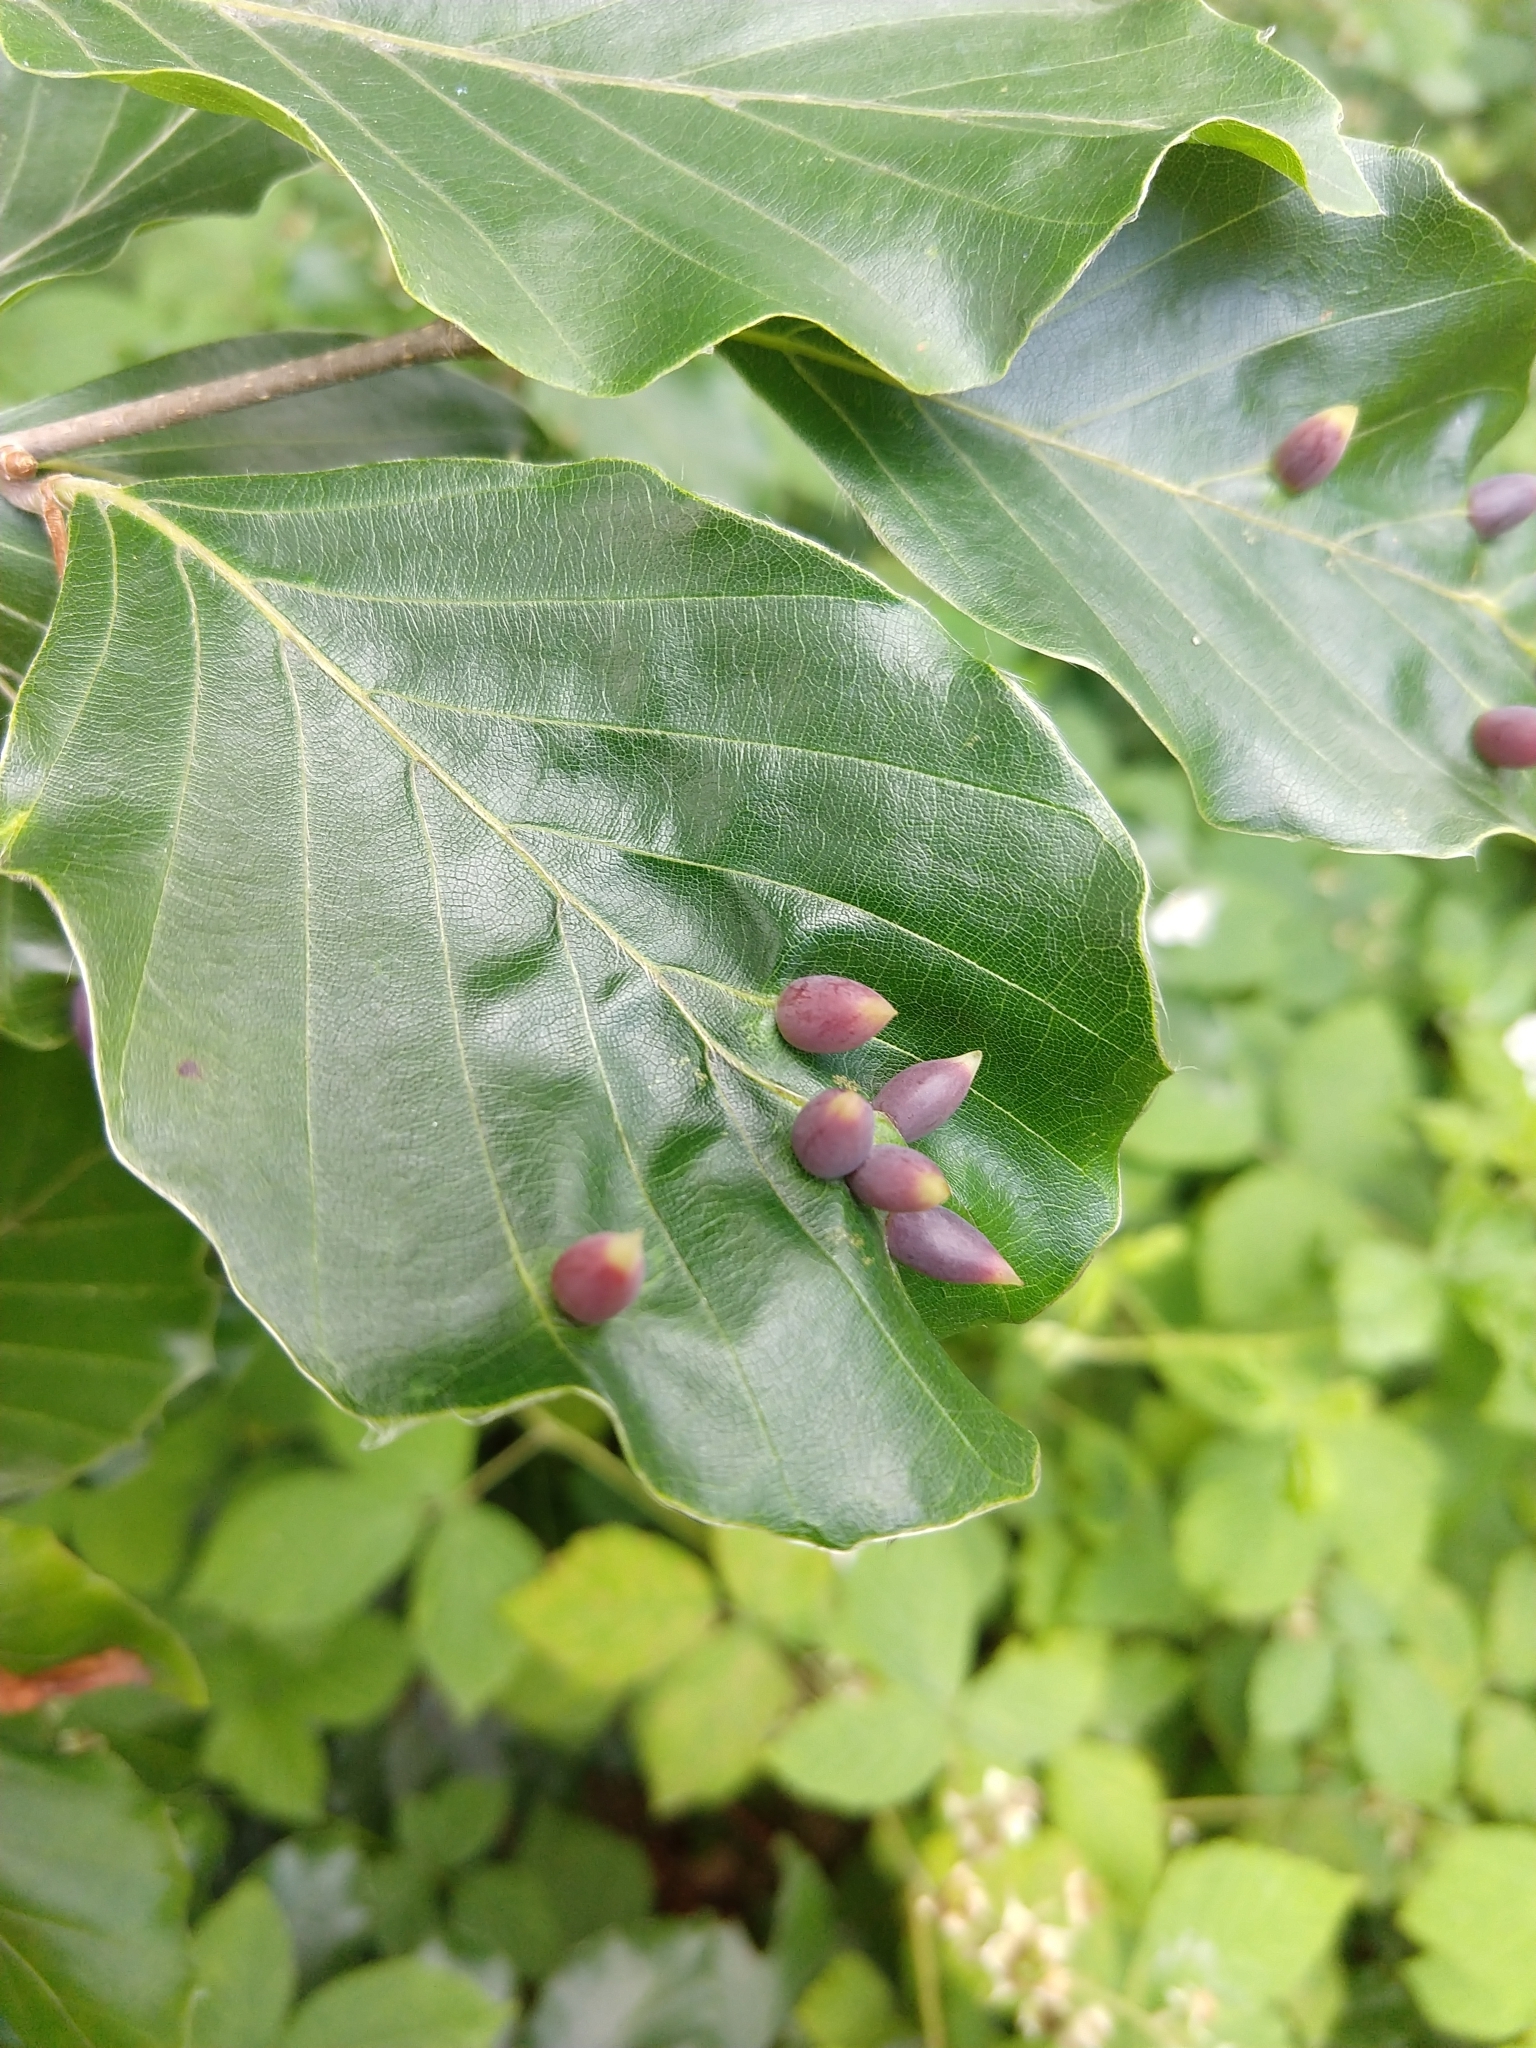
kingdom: Animalia
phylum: Arthropoda
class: Insecta
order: Diptera
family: Cecidomyiidae
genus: Mikiola
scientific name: Mikiola fagi
